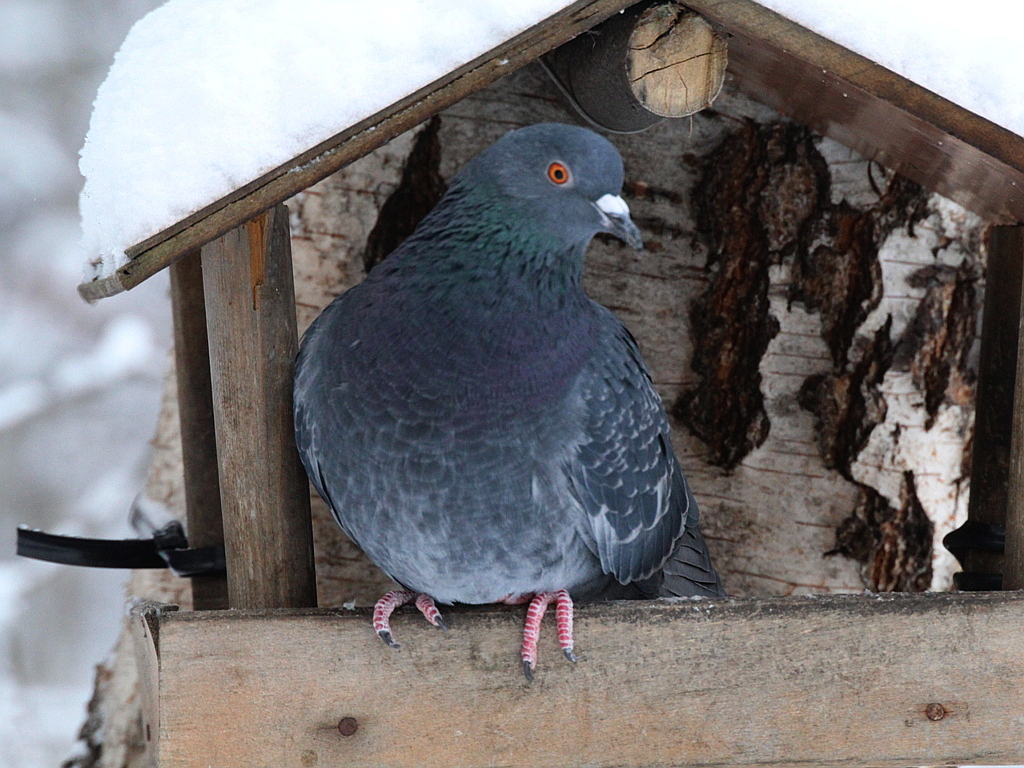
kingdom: Animalia
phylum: Chordata
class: Aves
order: Columbiformes
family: Columbidae
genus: Columba
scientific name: Columba livia
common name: Rock pigeon
